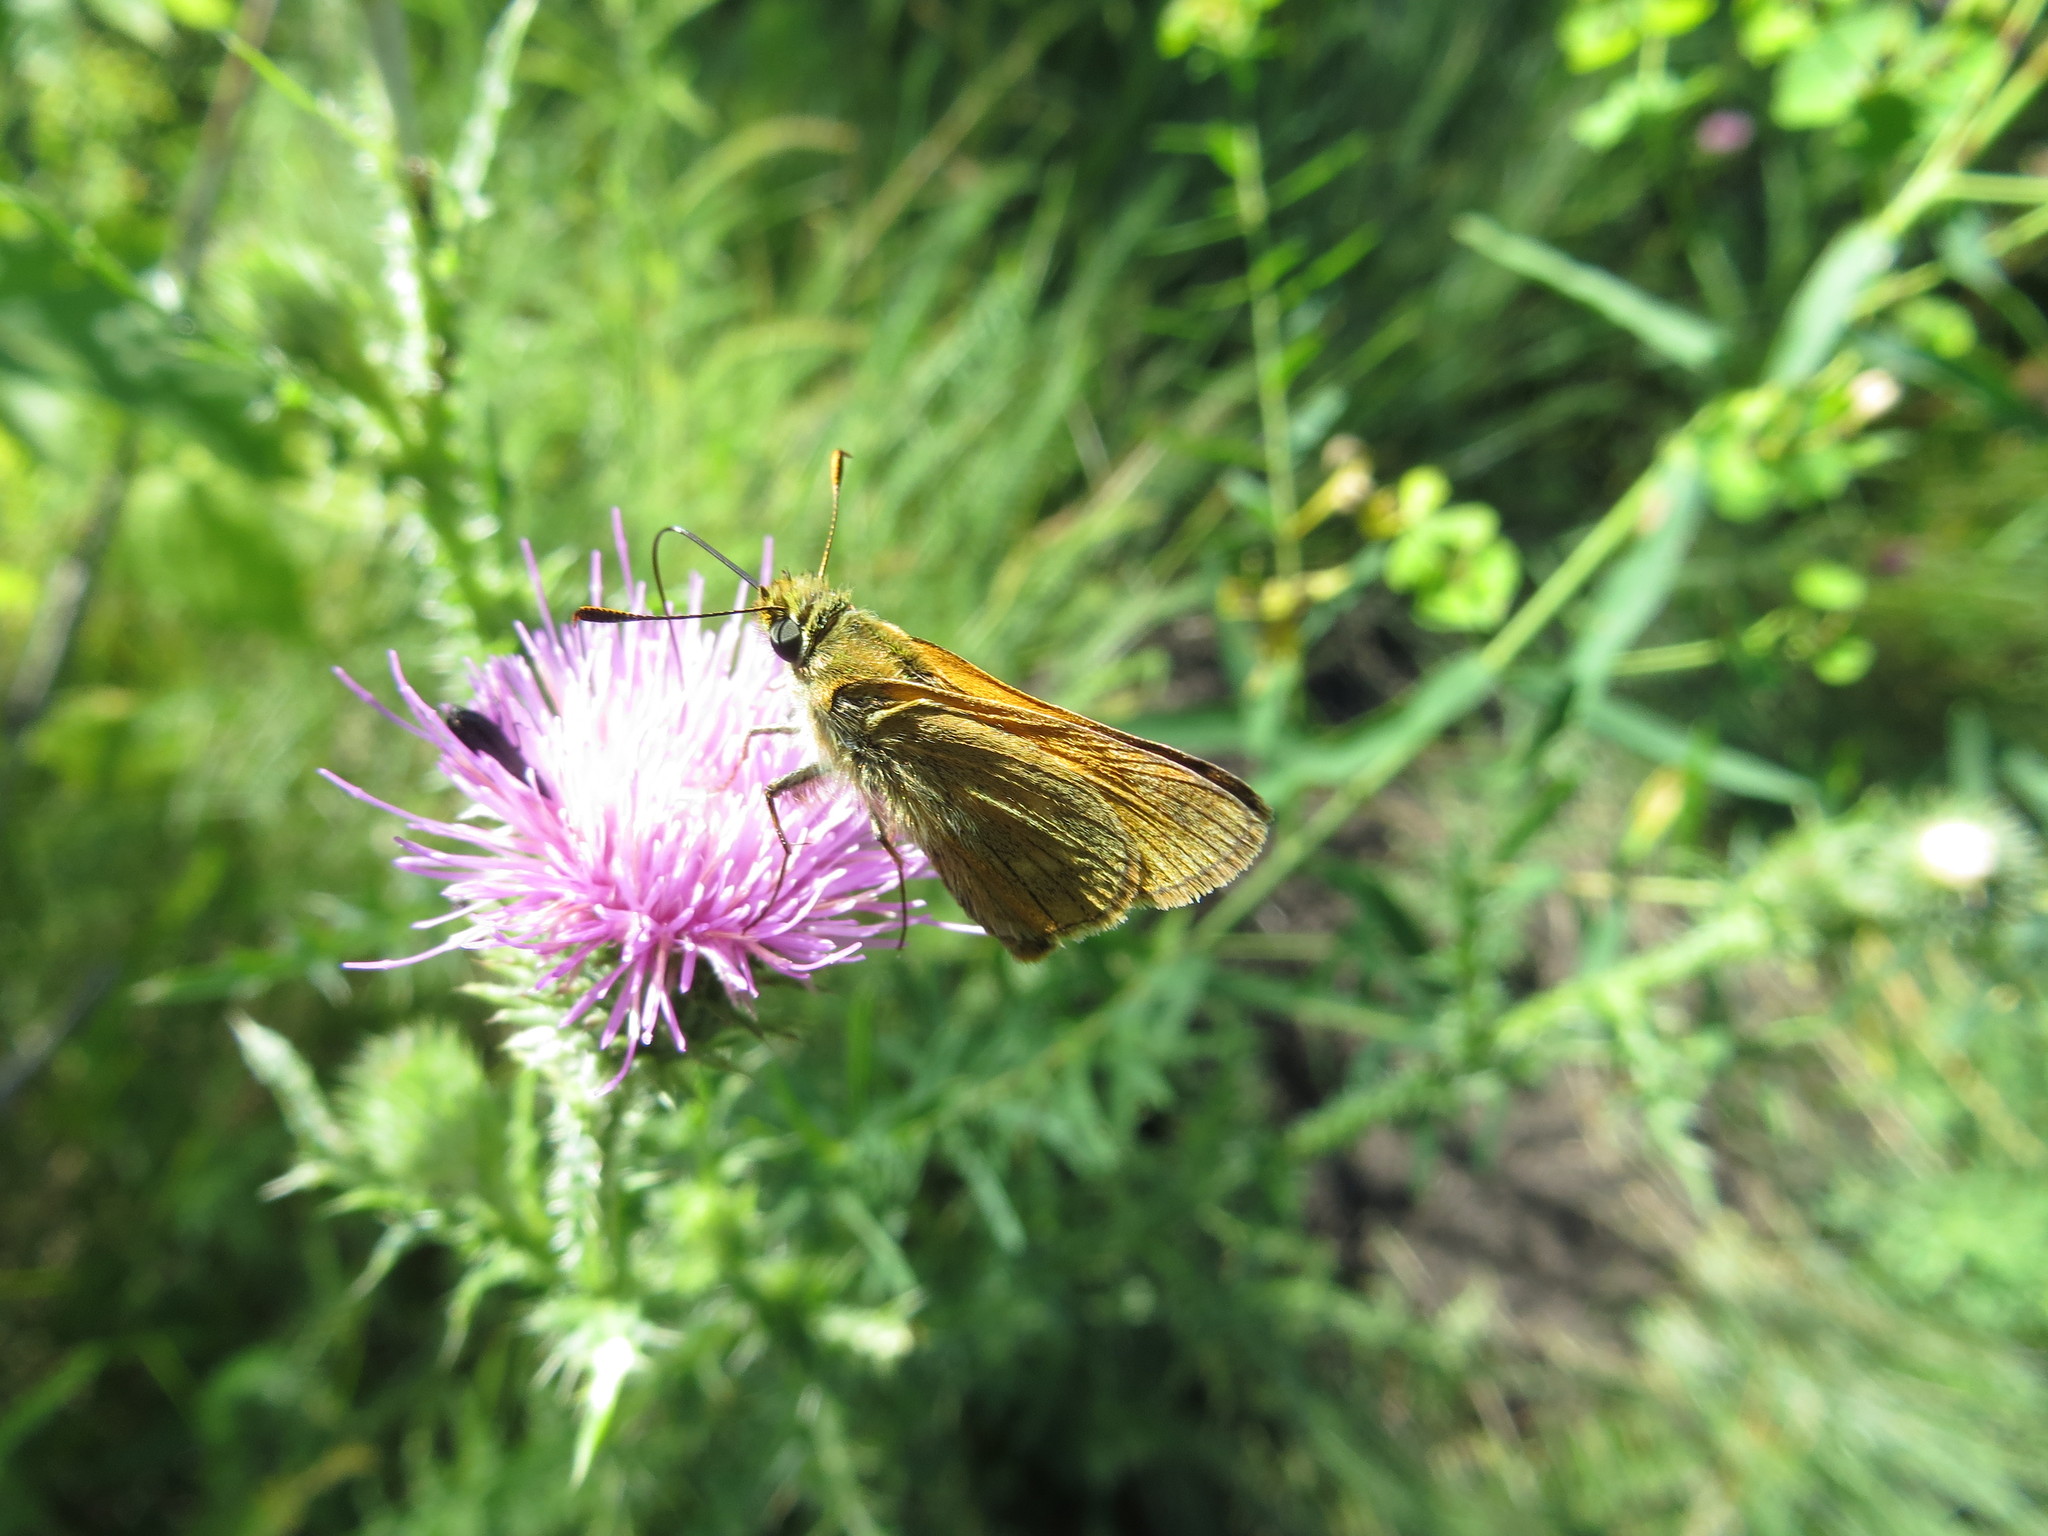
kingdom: Animalia
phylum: Arthropoda
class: Insecta
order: Lepidoptera
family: Hesperiidae
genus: Ochlodes
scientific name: Ochlodes venata
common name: Large skipper
